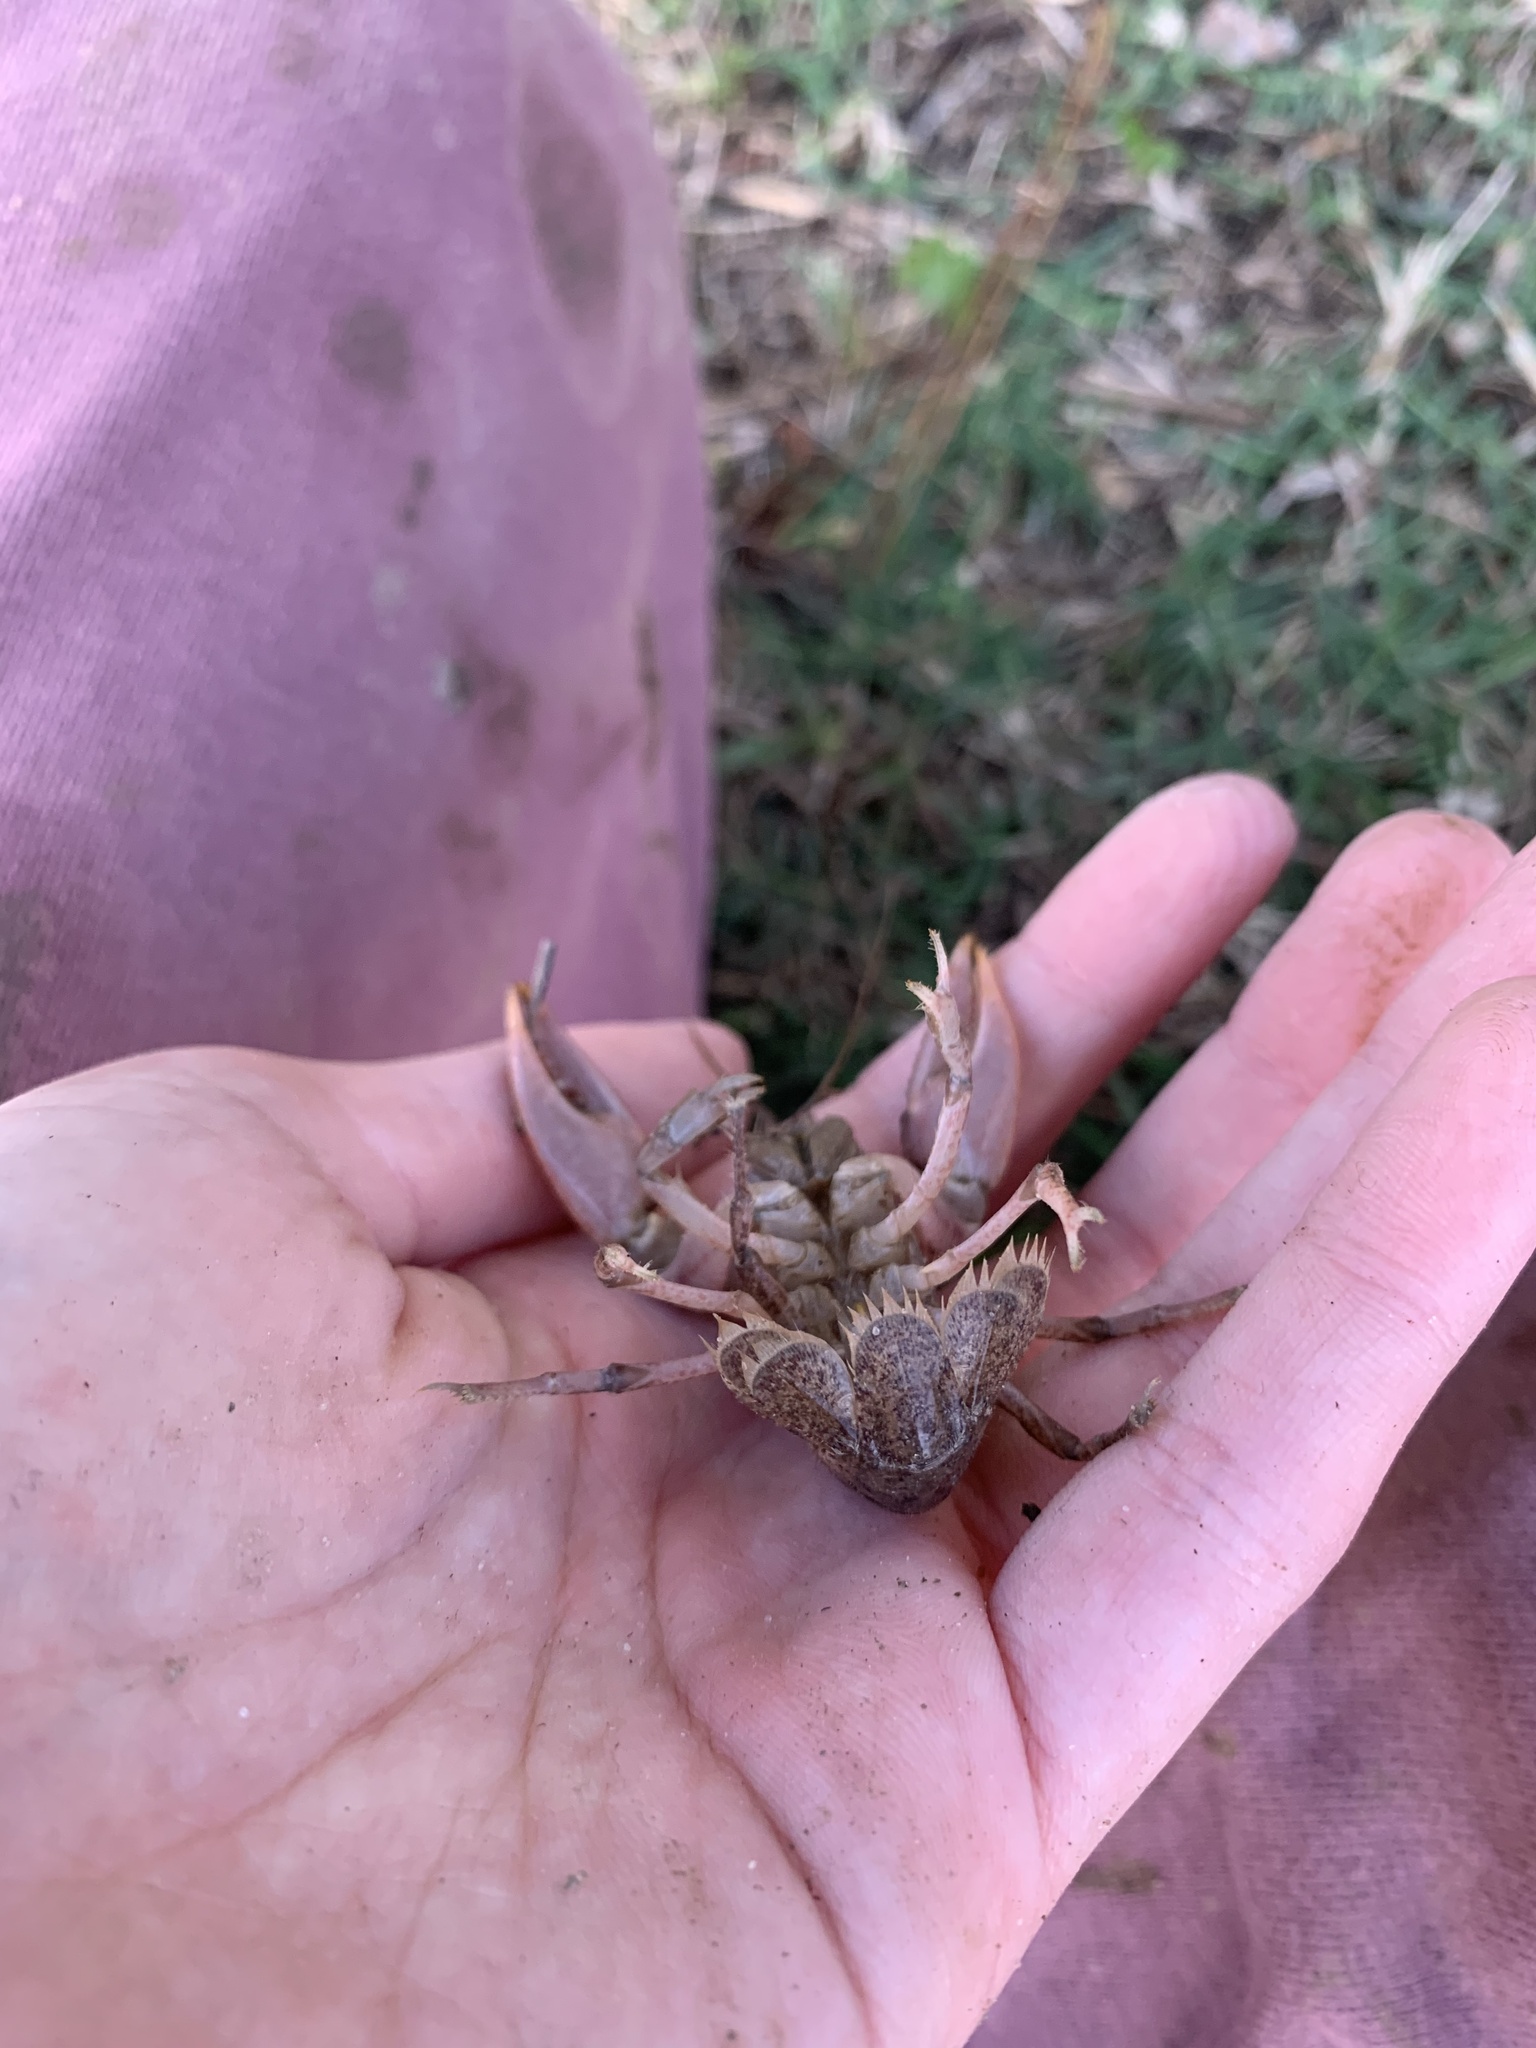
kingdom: Animalia
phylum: Arthropoda
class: Malacostraca
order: Decapoda
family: Cambaridae
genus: Creaserinus
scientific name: Creaserinus clausus
